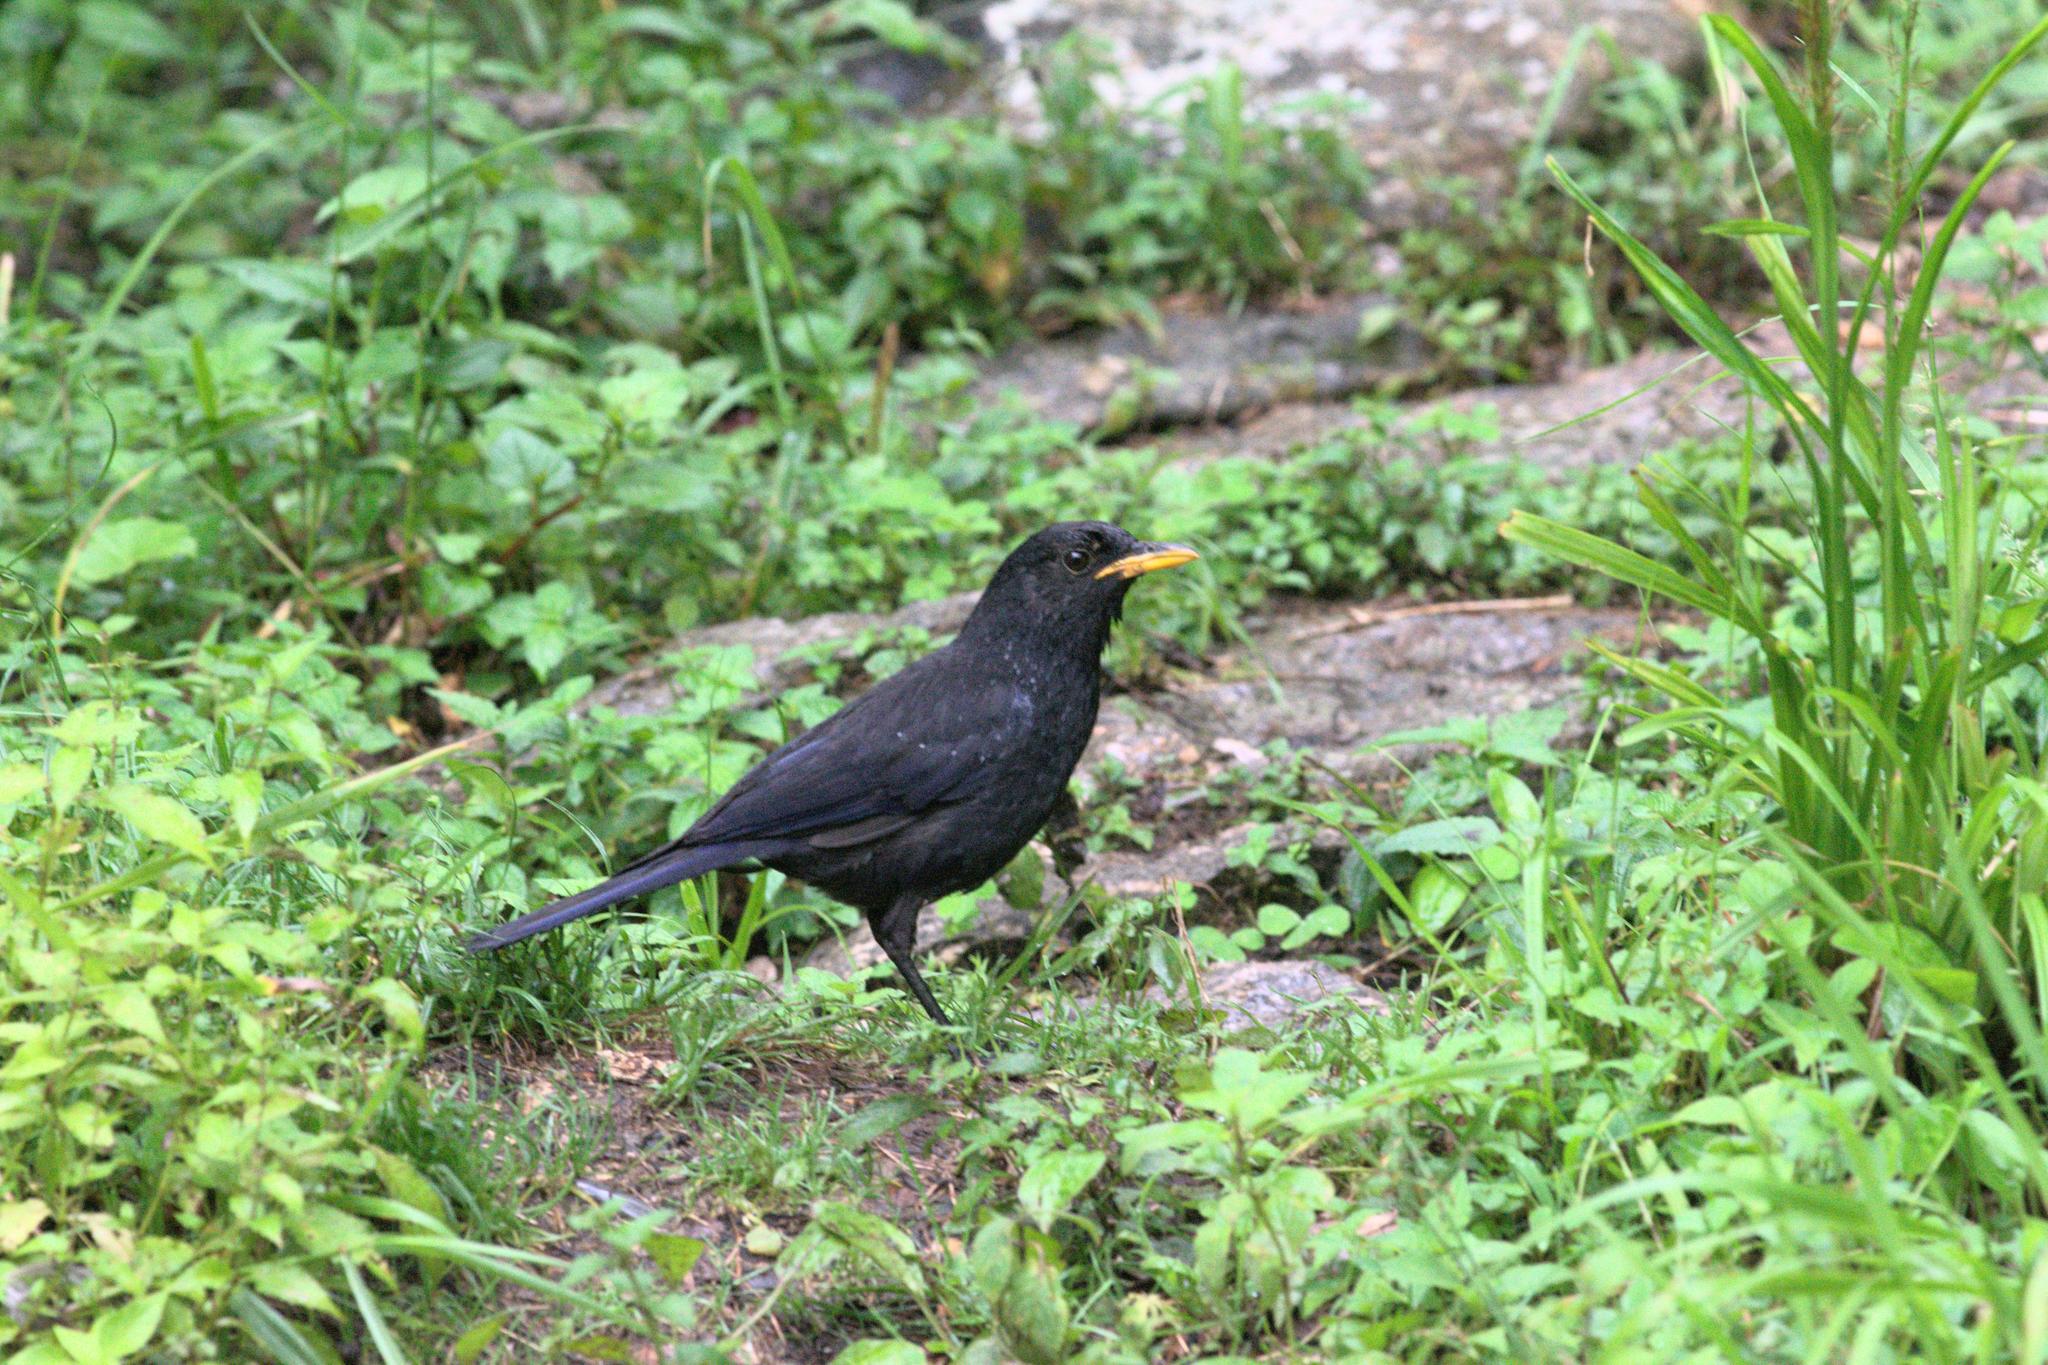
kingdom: Animalia
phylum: Chordata
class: Aves
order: Passeriformes
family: Muscicapidae
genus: Myophonus
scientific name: Myophonus caeruleus
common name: Blue whistling-thrush
